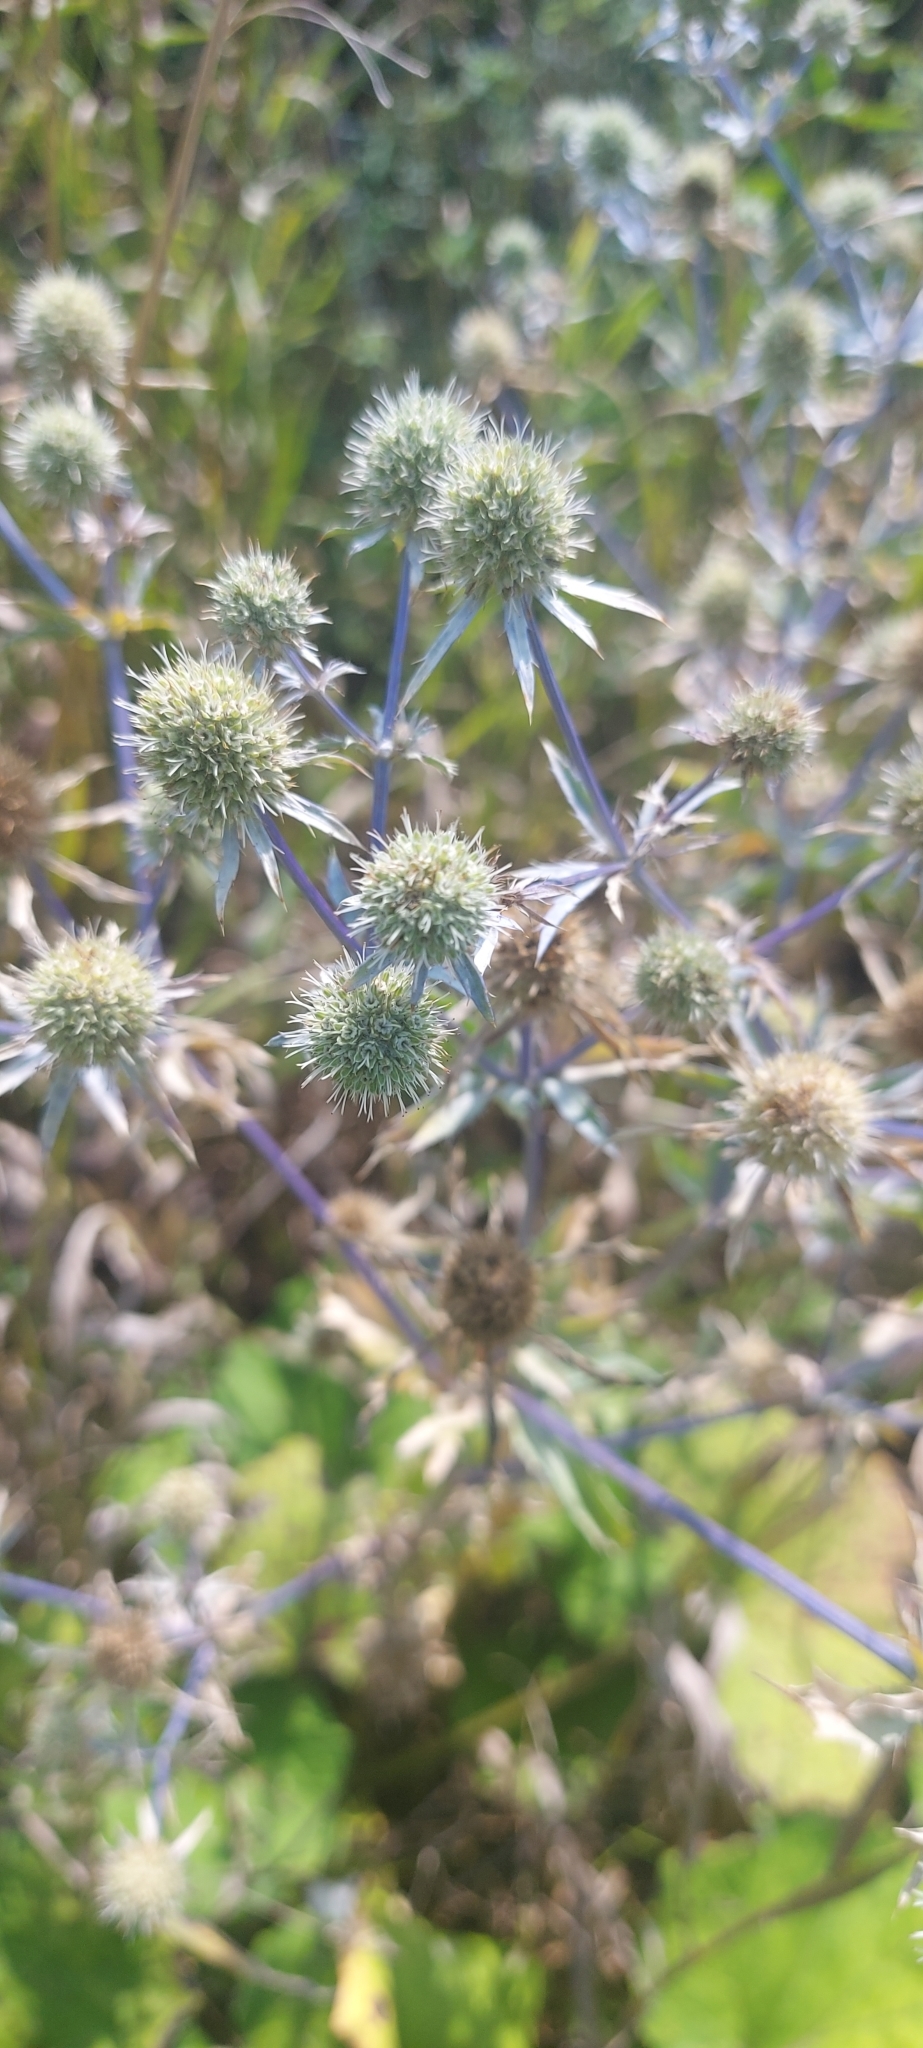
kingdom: Plantae
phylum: Tracheophyta
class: Magnoliopsida
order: Apiales
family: Apiaceae
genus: Eryngium
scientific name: Eryngium planum
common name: Blue eryngo
